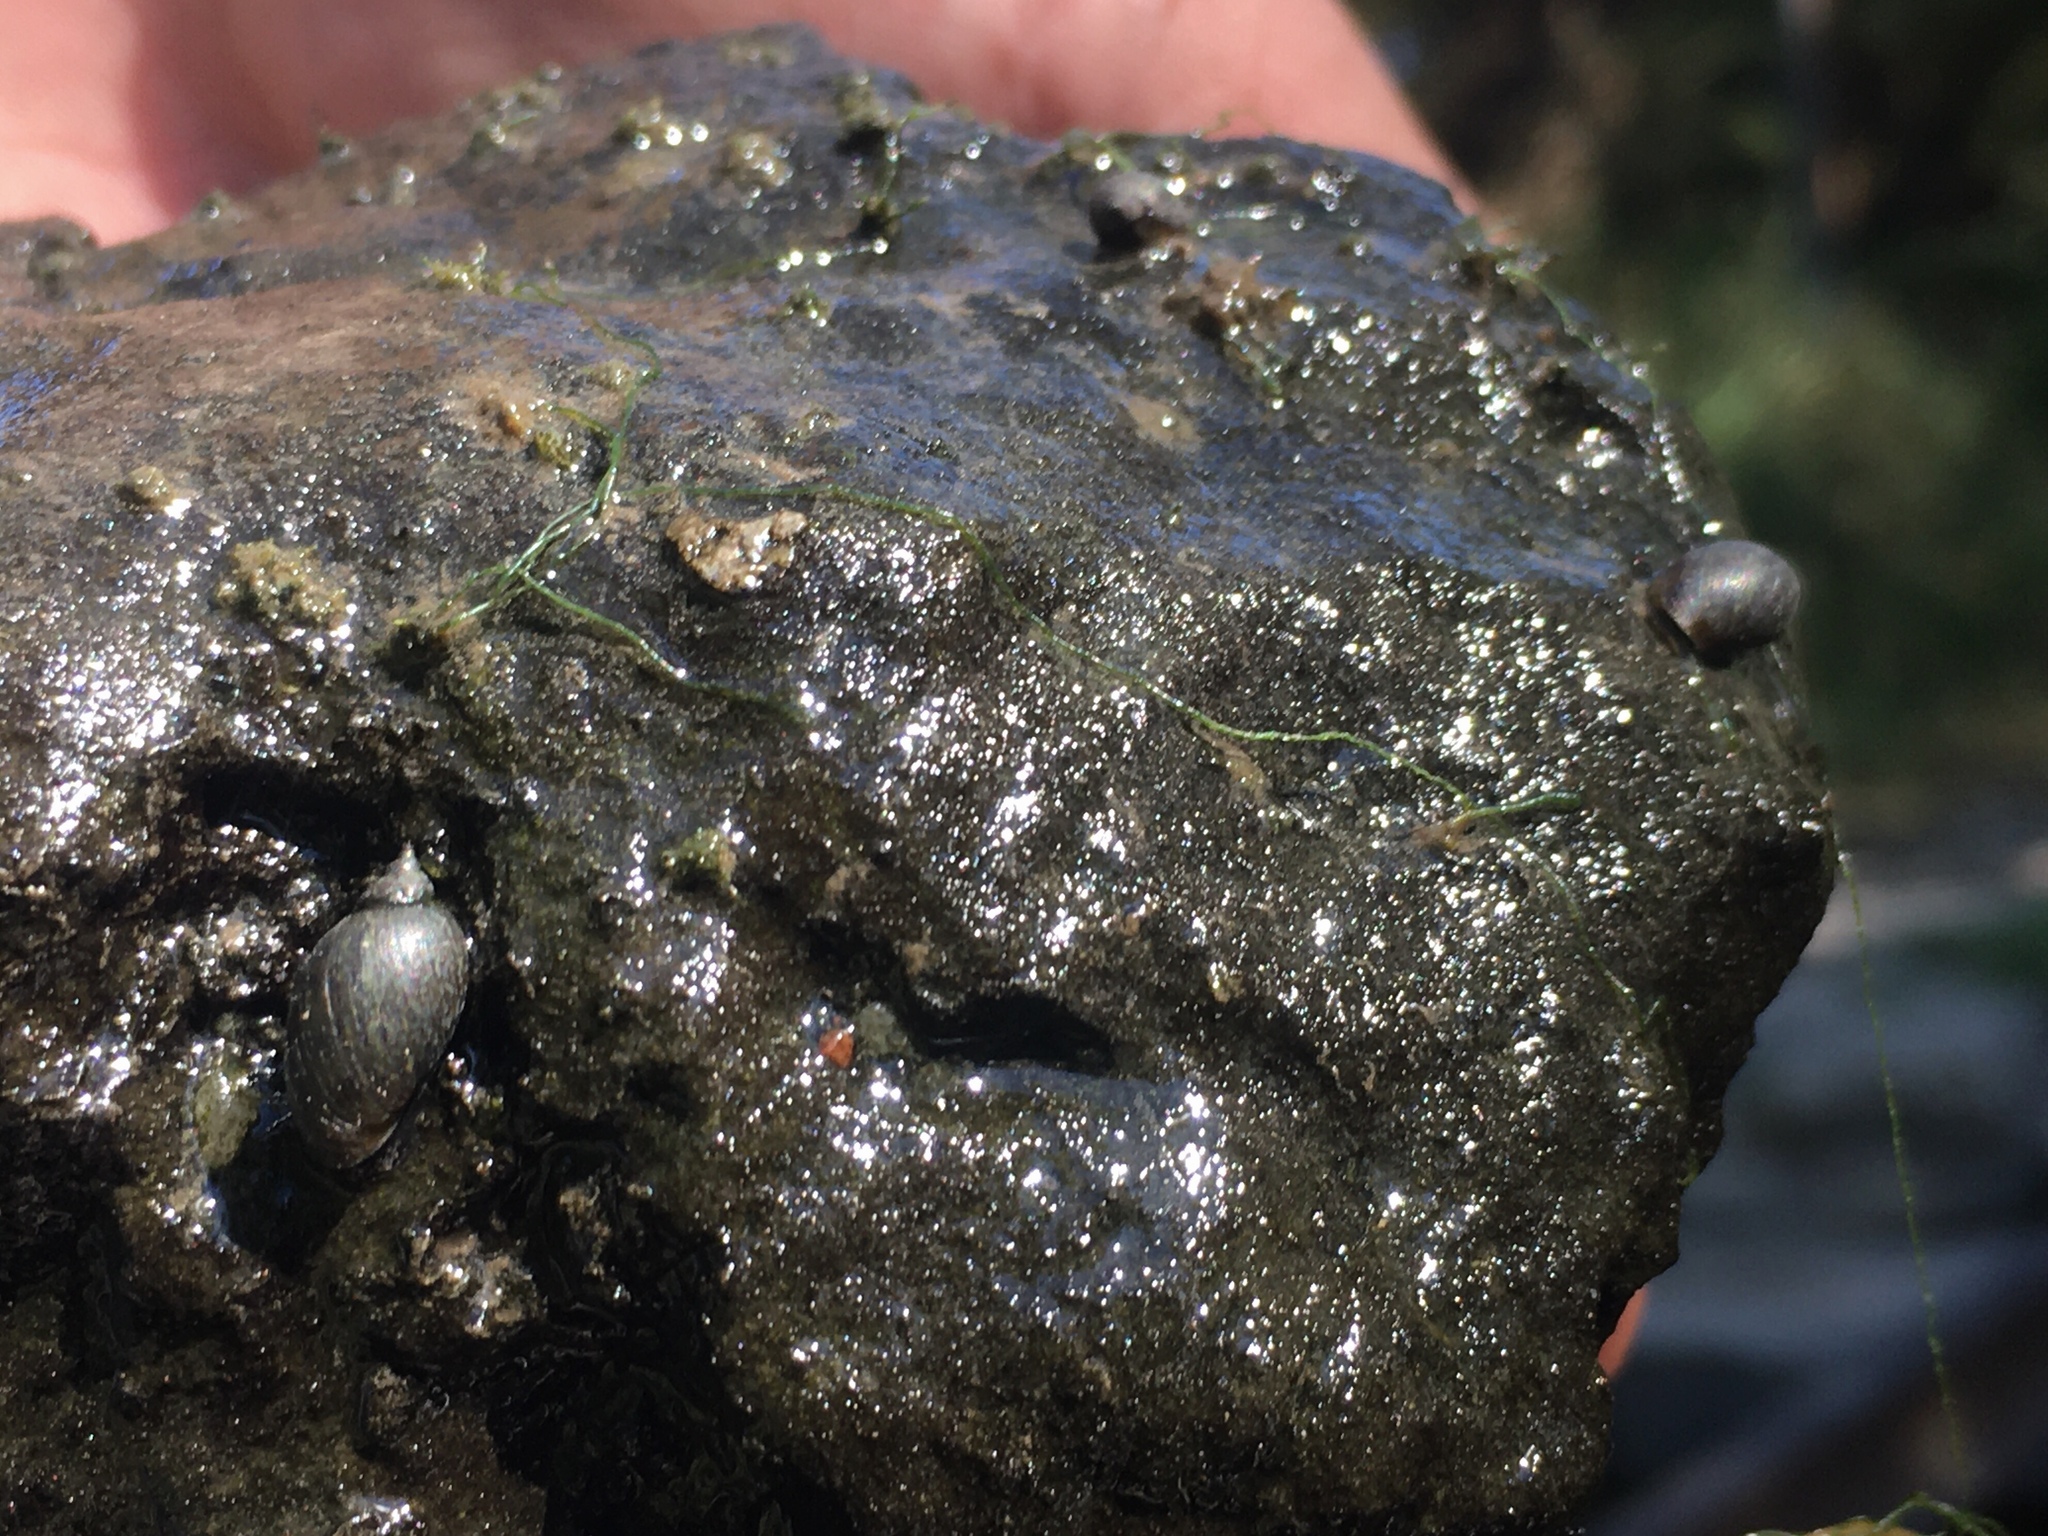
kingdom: Animalia
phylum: Mollusca
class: Gastropoda
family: Chilinidae
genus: Chilina
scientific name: Chilina parchappii
